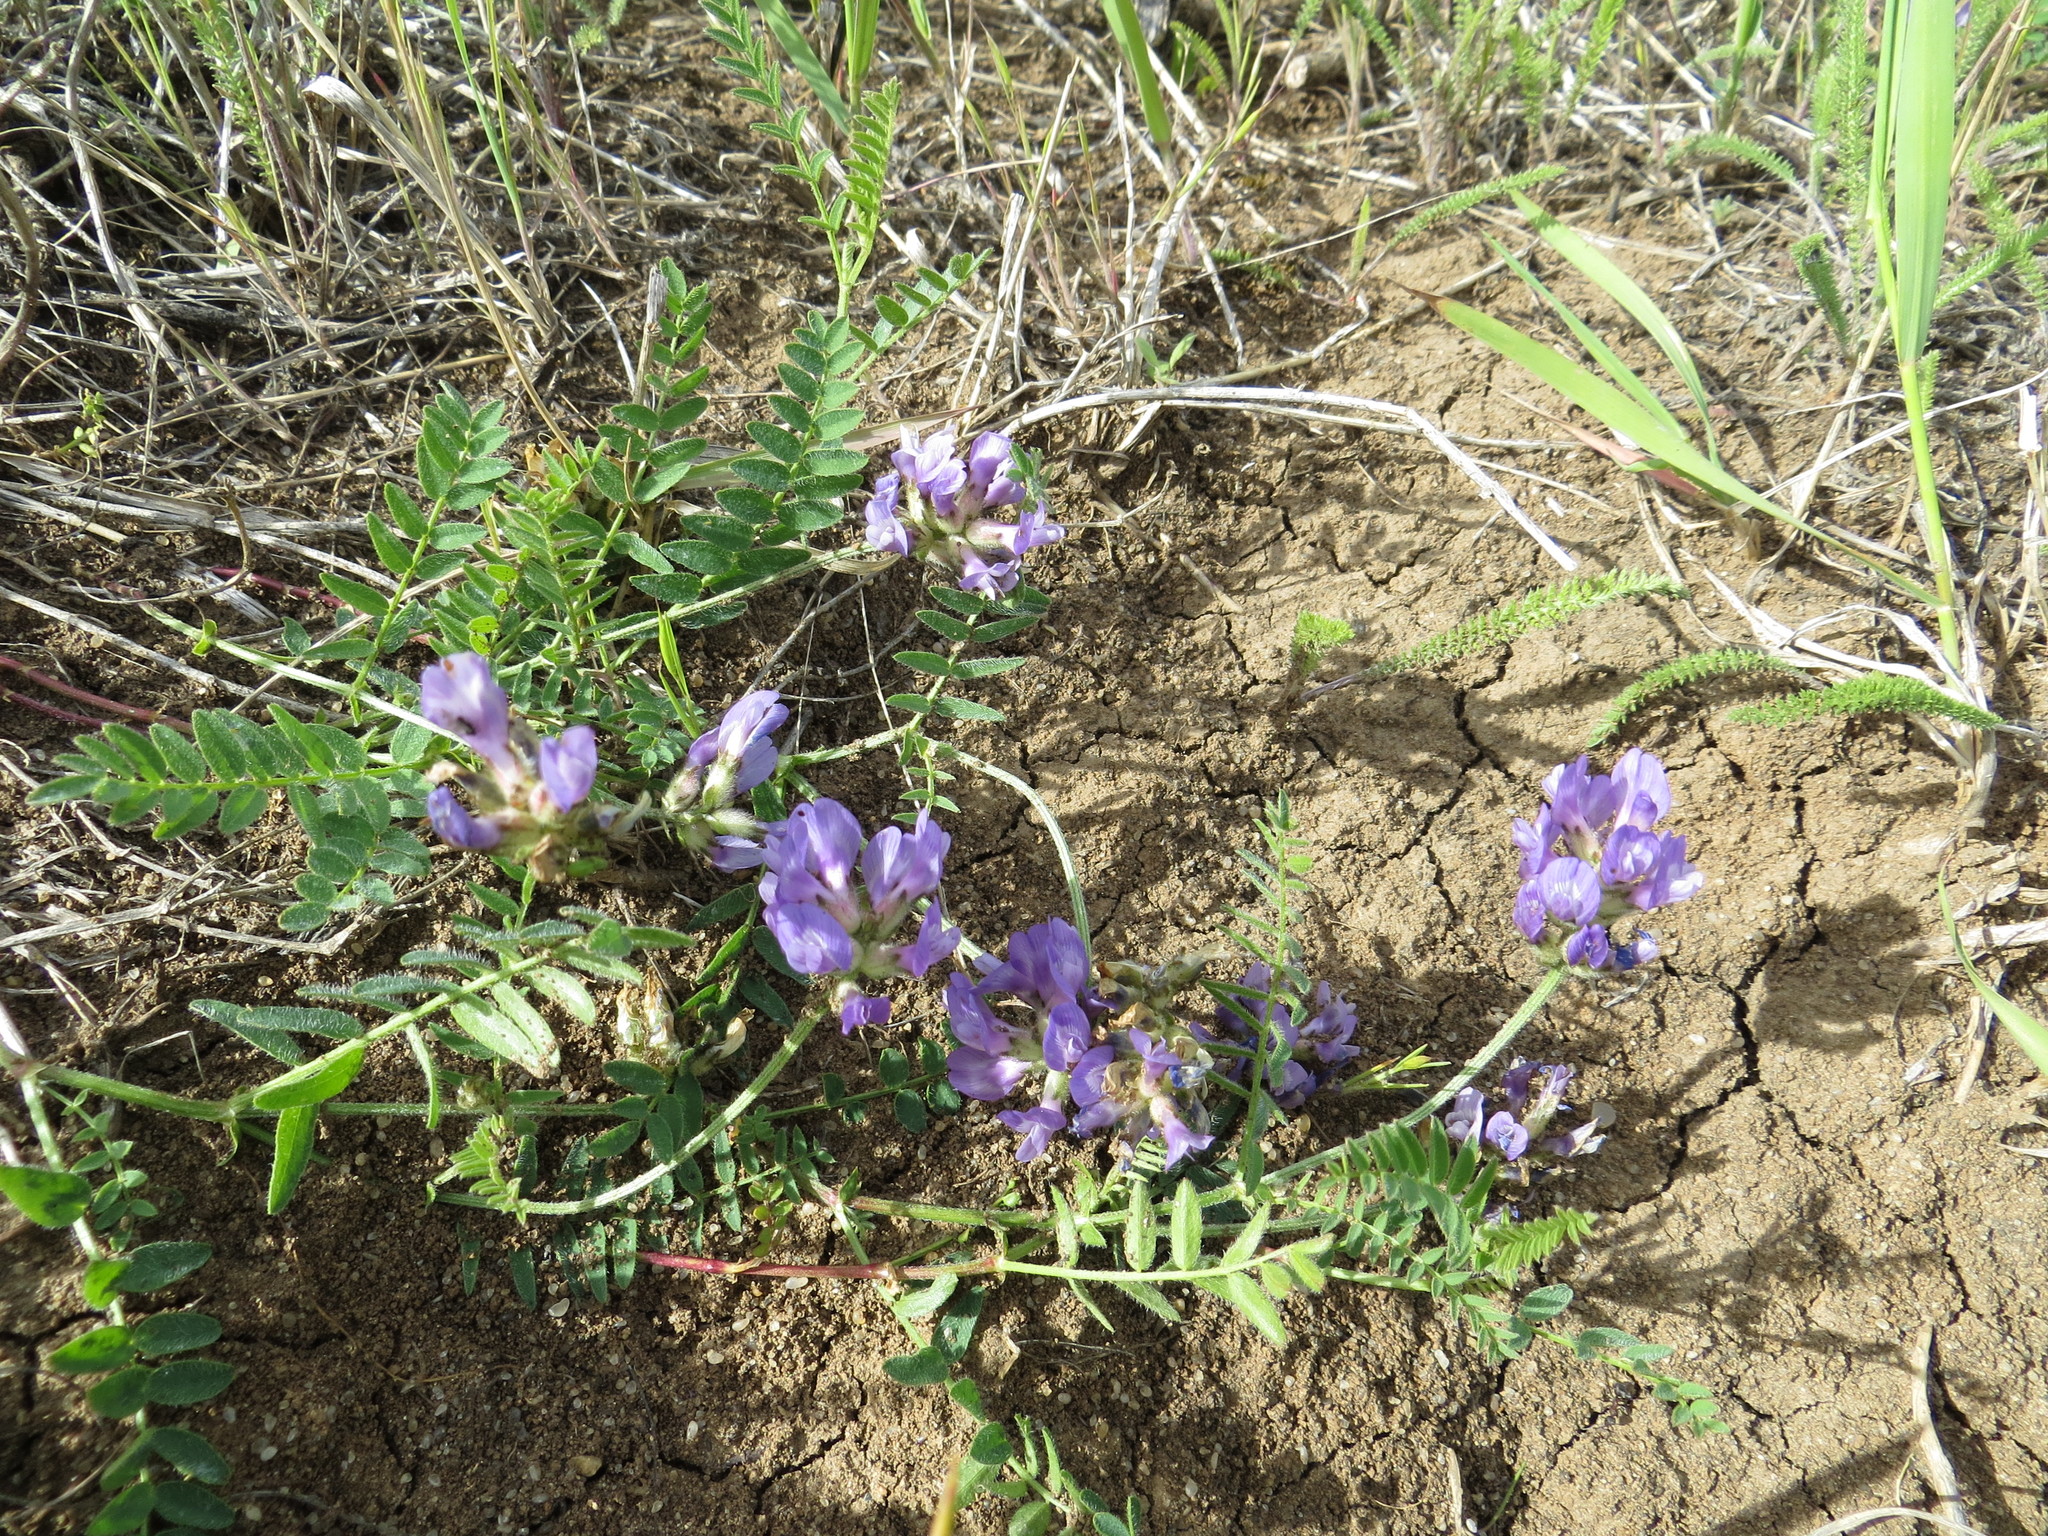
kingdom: Plantae
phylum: Tracheophyta
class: Magnoliopsida
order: Fabales
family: Fabaceae
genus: Astragalus
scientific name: Astragalus danicus
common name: Purple milk-vetch
